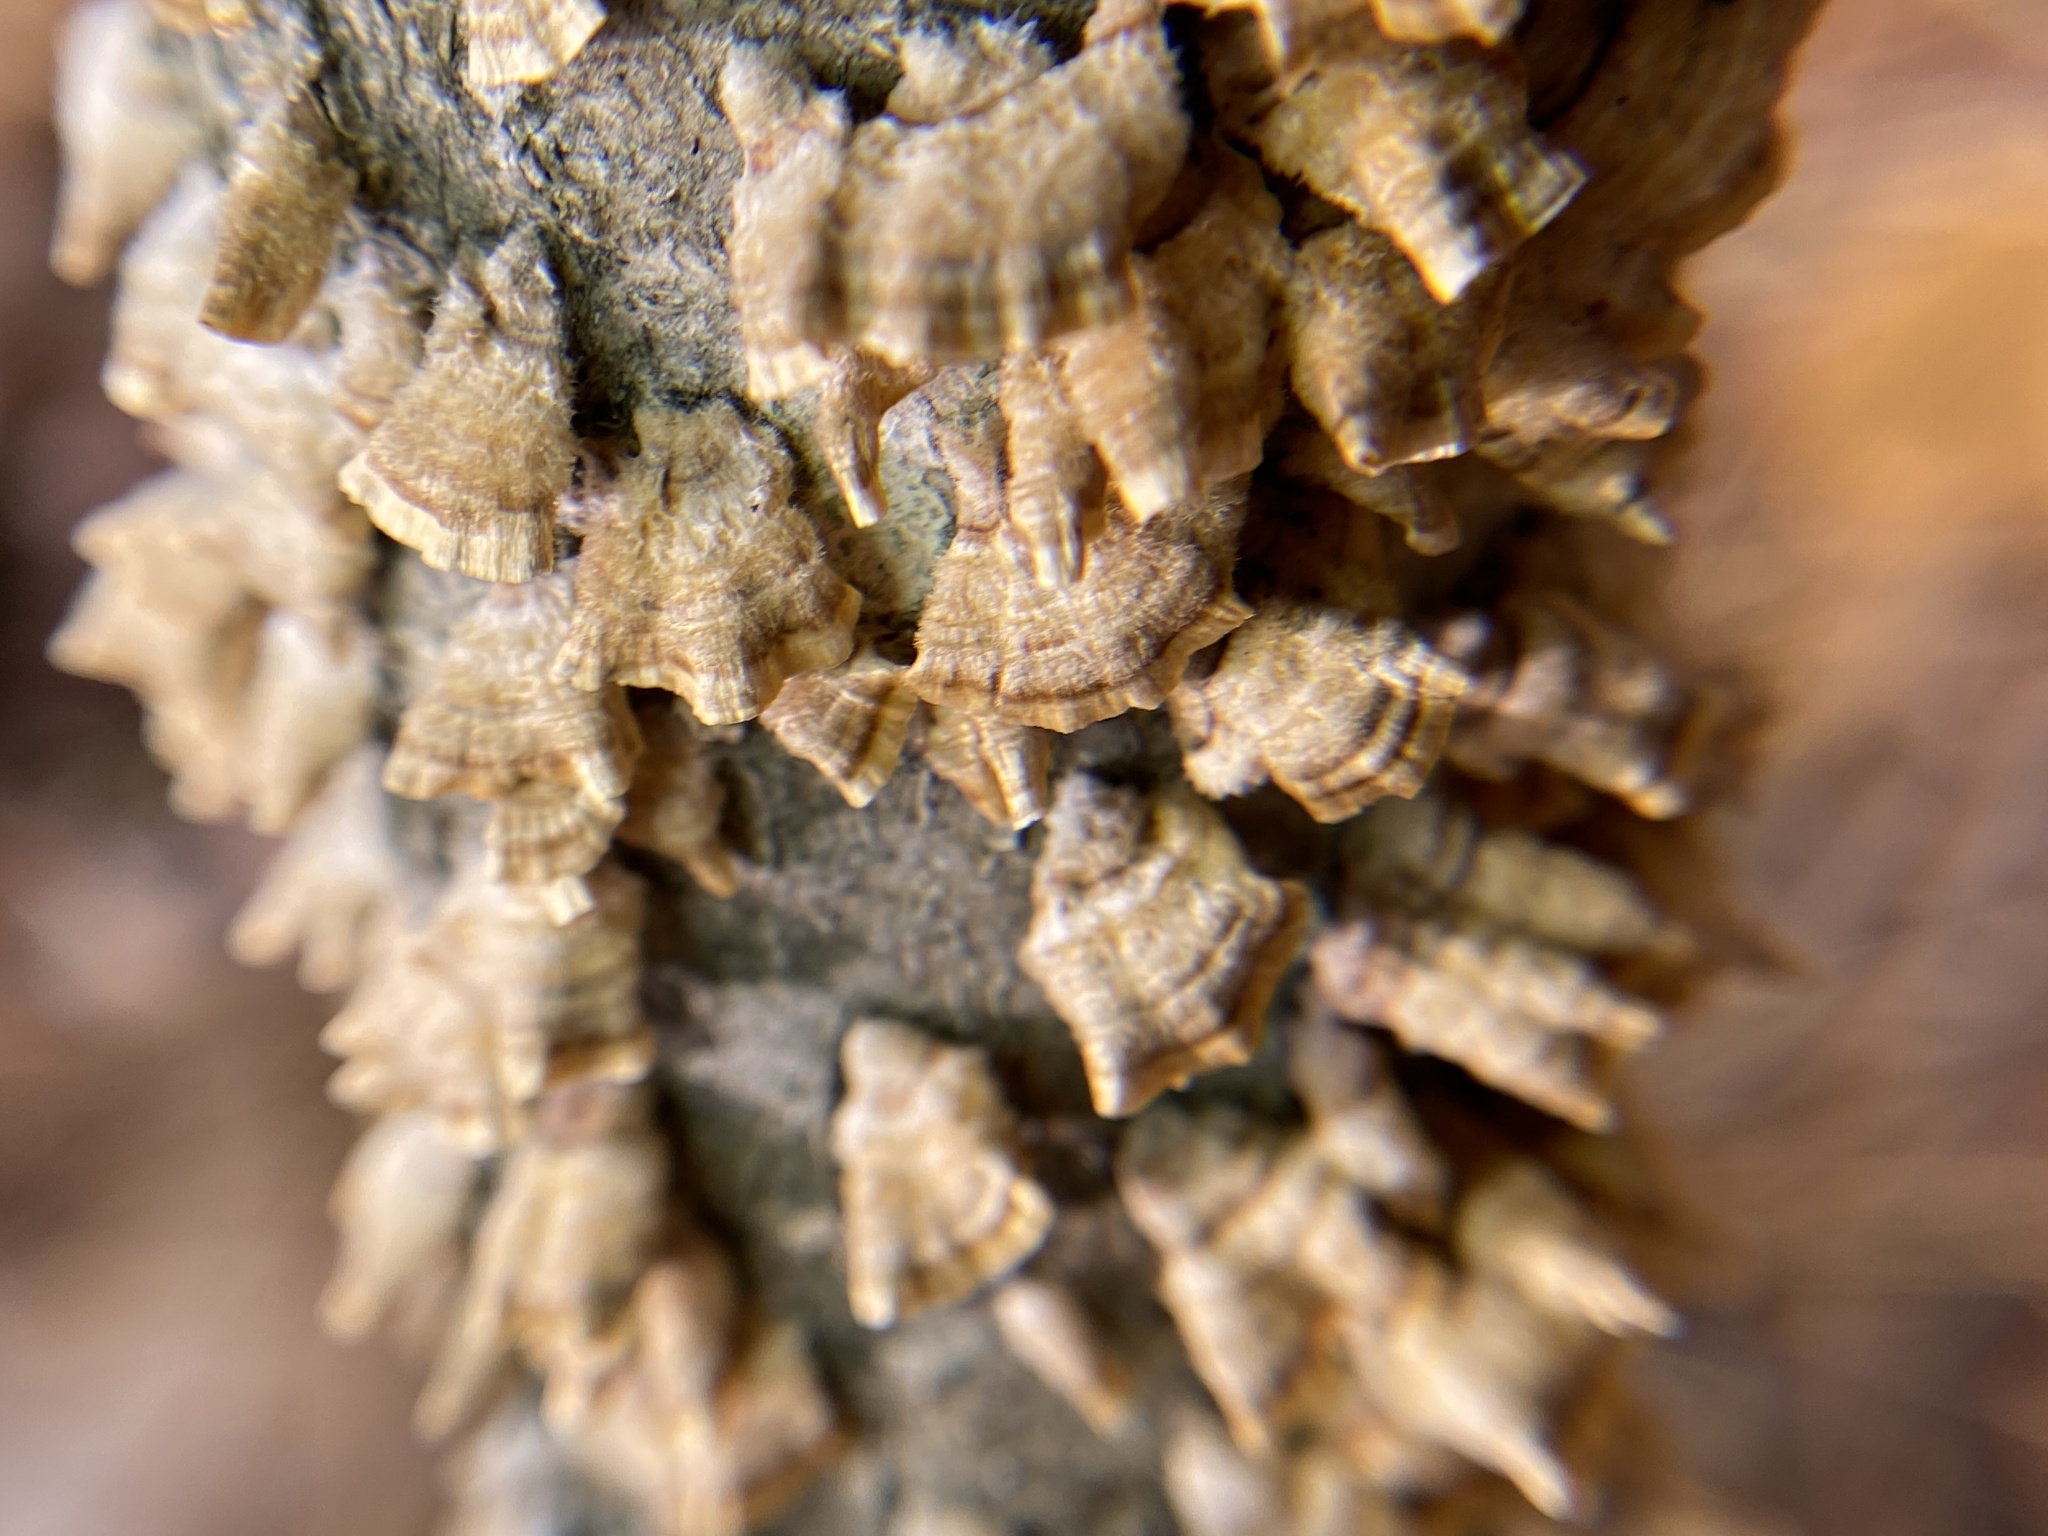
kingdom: Fungi
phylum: Basidiomycota
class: Agaricomycetes
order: Russulales
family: Stereaceae
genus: Stereum
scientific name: Stereum complicatum
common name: Crowded parchment
